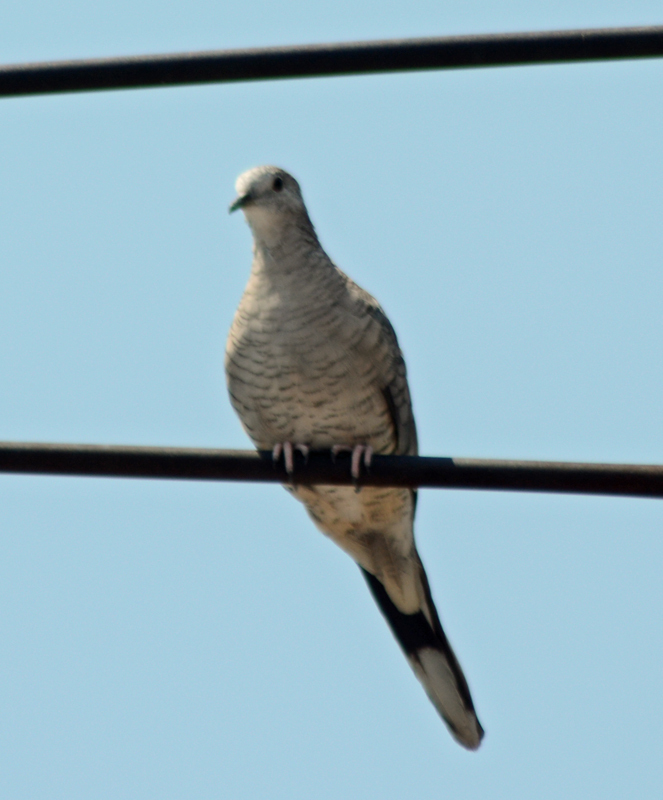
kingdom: Animalia
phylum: Chordata
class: Aves
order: Columbiformes
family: Columbidae
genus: Columbina
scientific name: Columbina inca
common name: Inca dove
